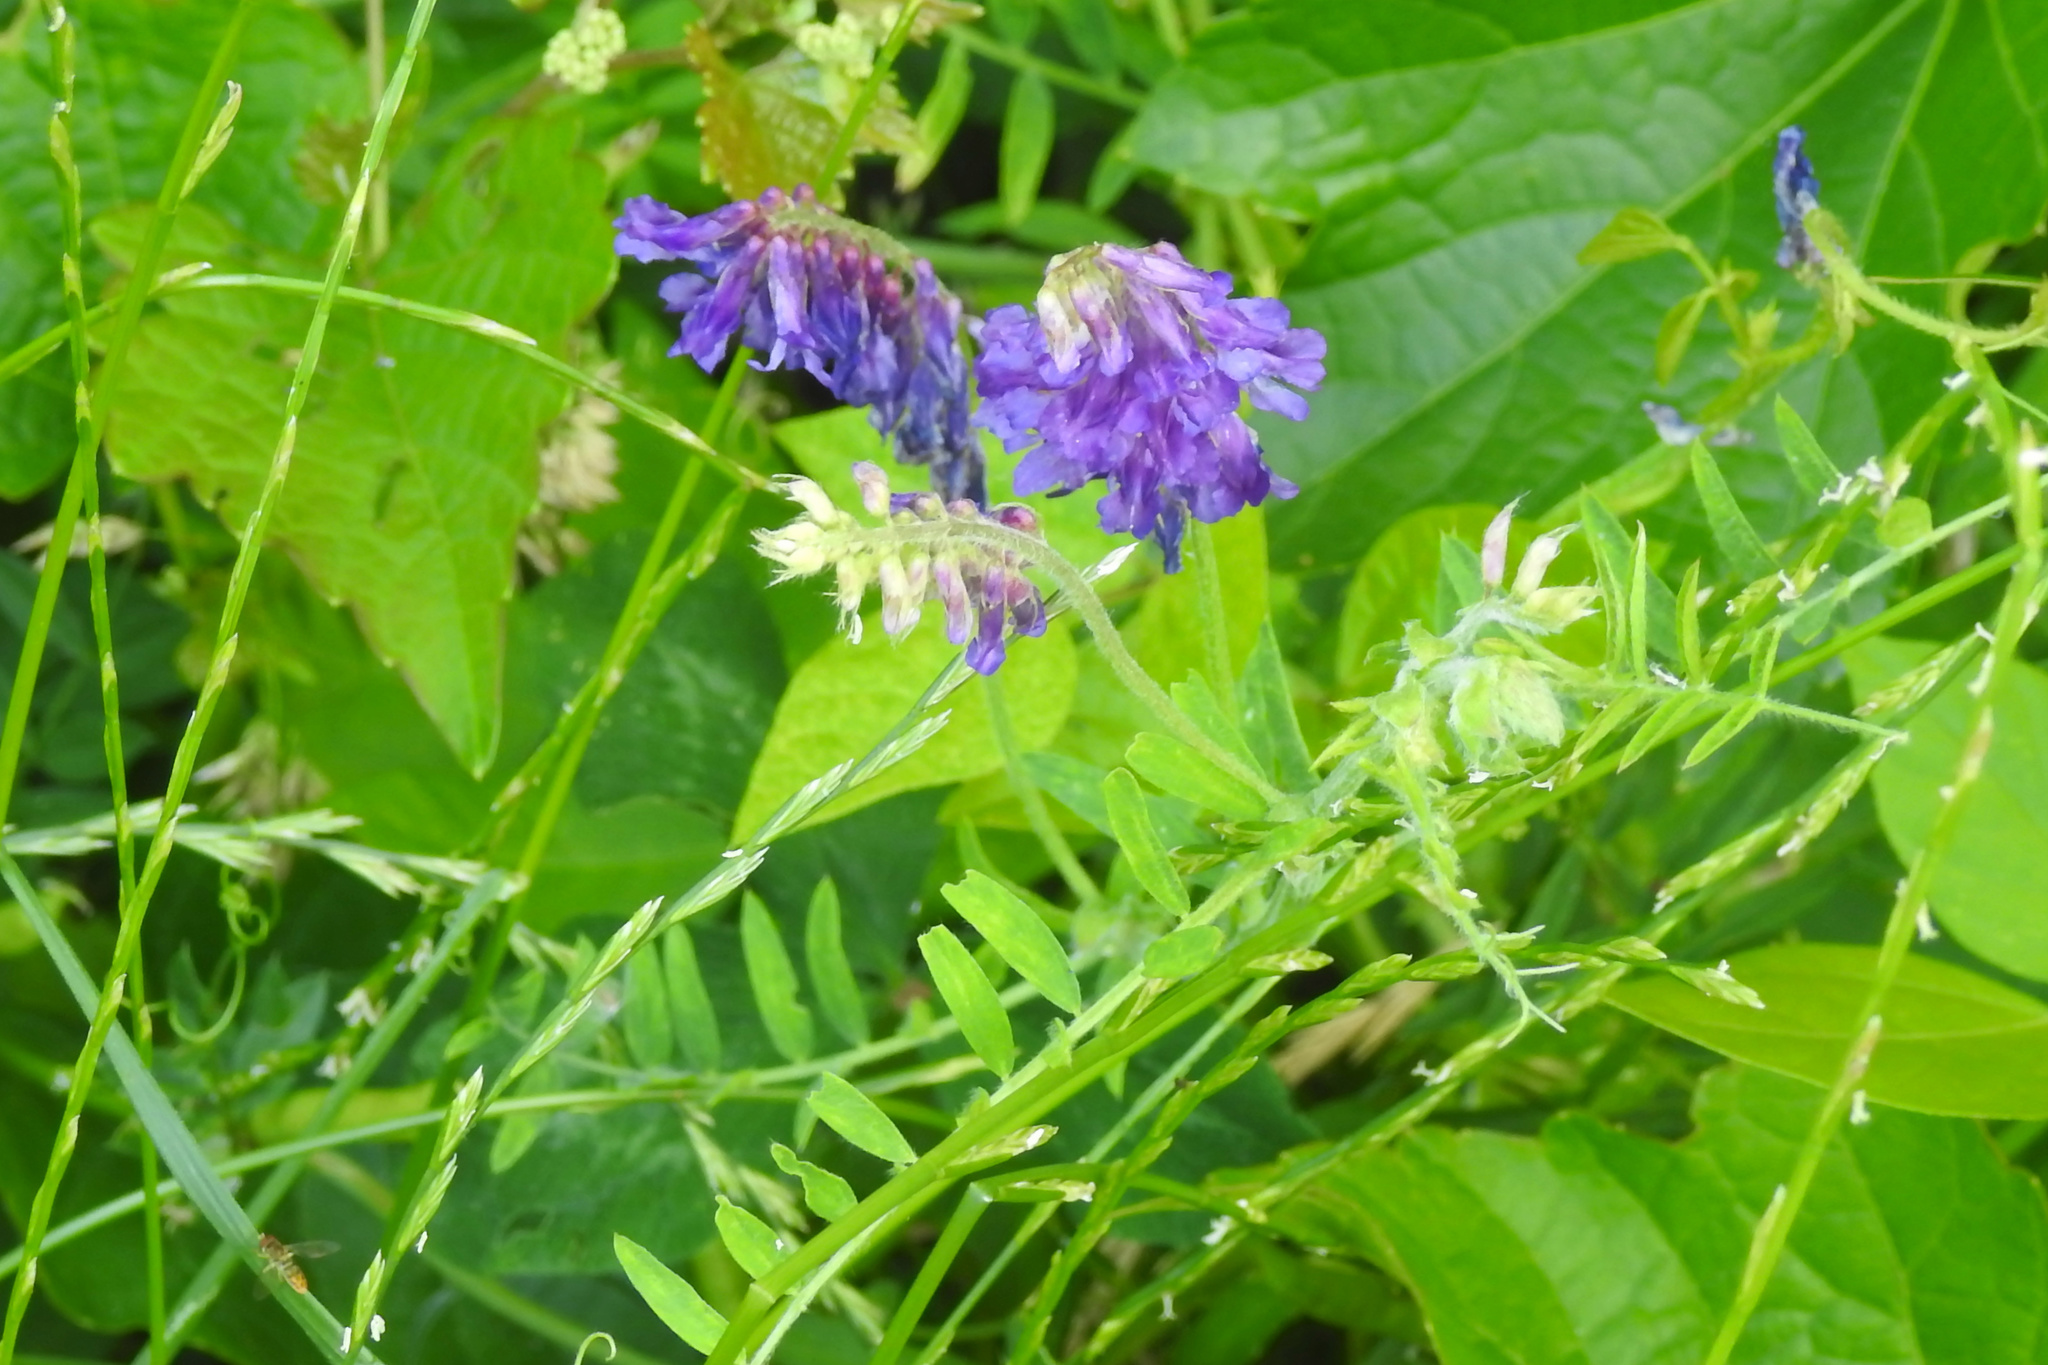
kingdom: Plantae
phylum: Tracheophyta
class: Magnoliopsida
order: Fabales
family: Fabaceae
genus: Vicia
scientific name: Vicia villosa
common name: Fodder vetch
